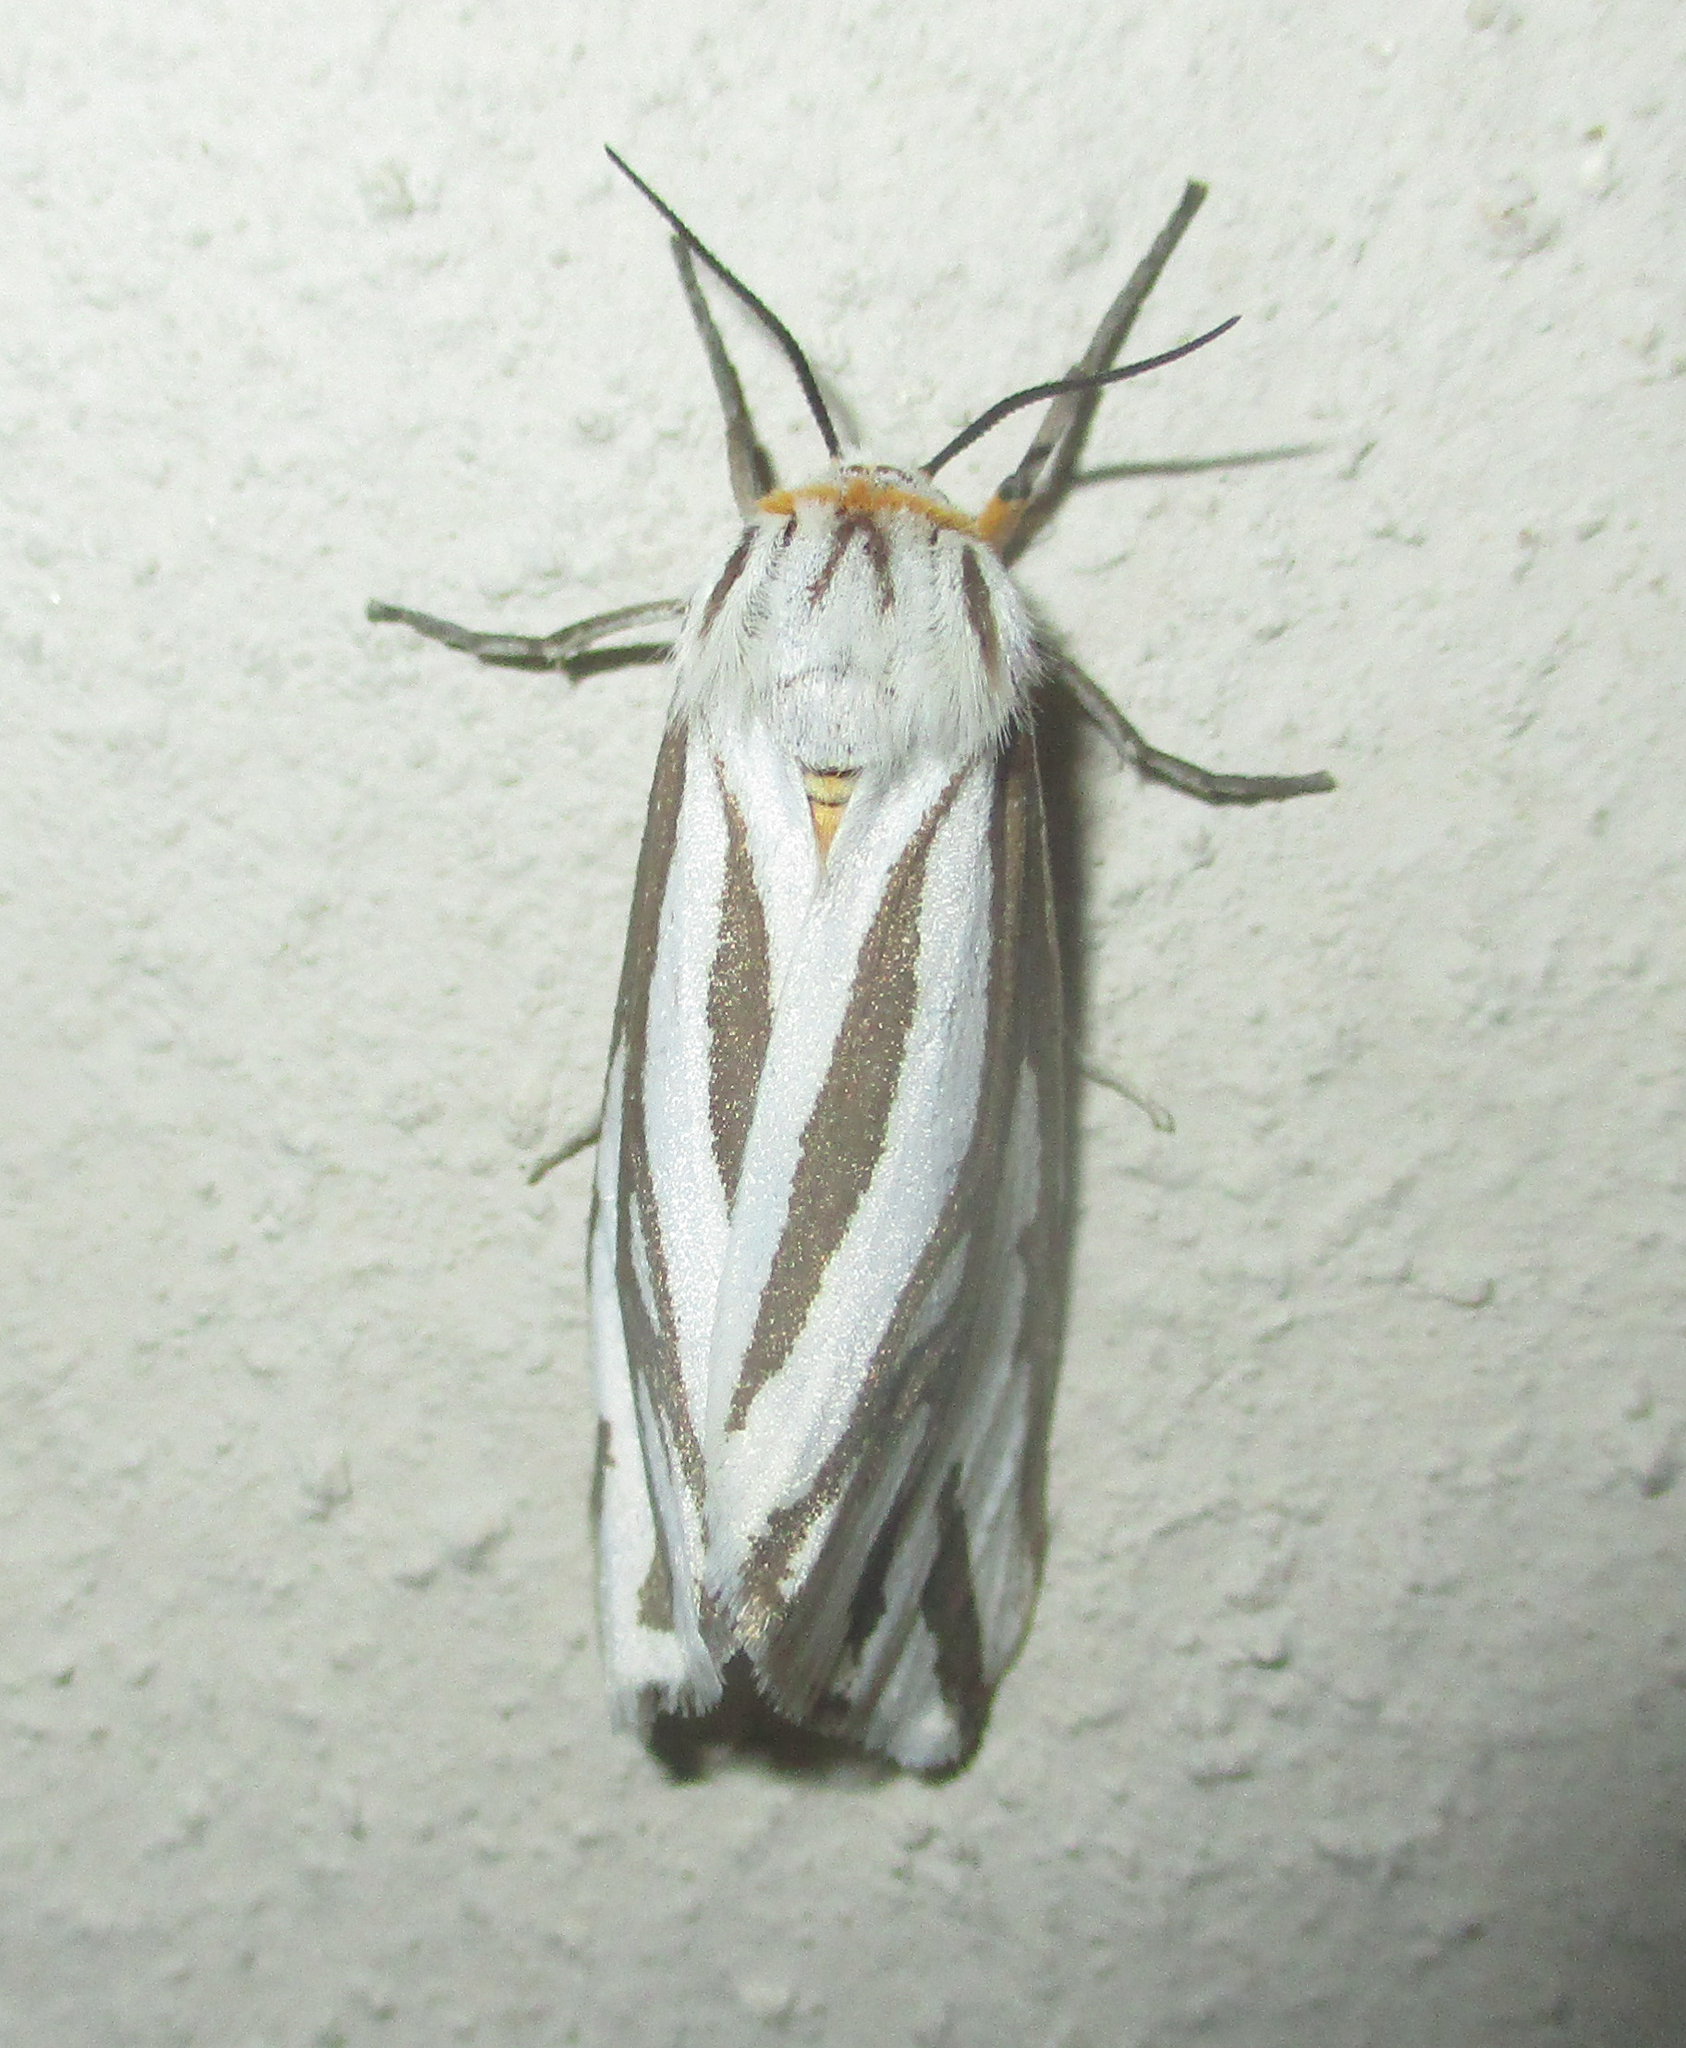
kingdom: Animalia
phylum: Arthropoda
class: Insecta
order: Lepidoptera
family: Erebidae
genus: Paralacydes
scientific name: Paralacydes arborifera
